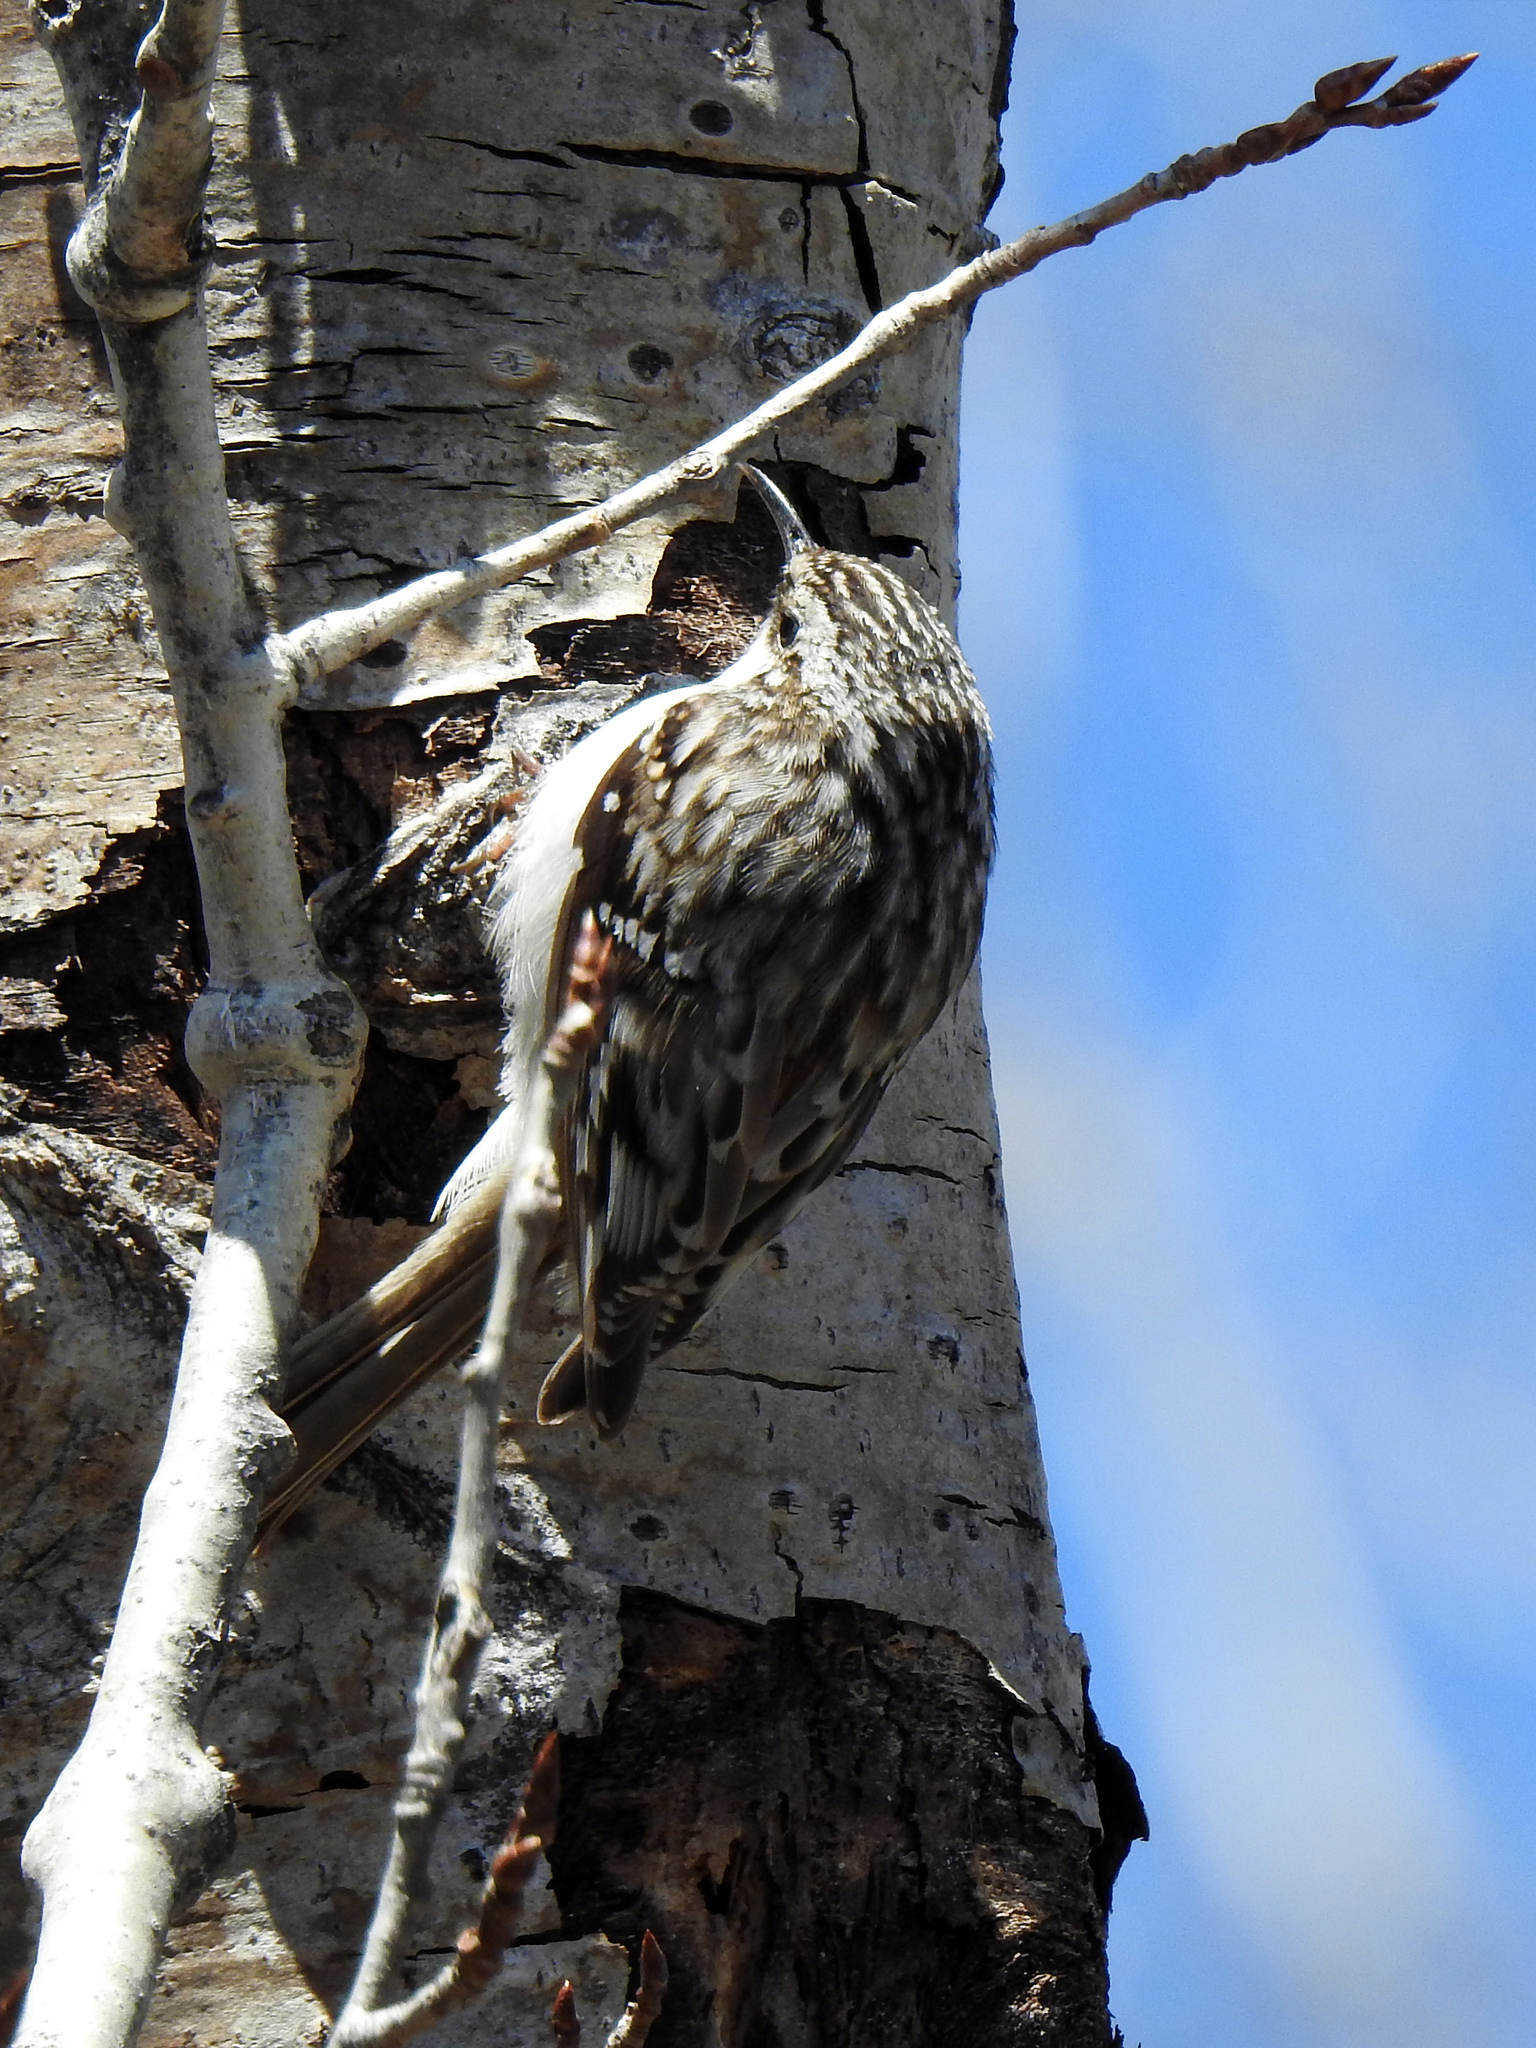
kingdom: Animalia
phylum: Chordata
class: Aves
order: Passeriformes
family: Certhiidae
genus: Certhia
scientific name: Certhia americana
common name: Brown creeper
